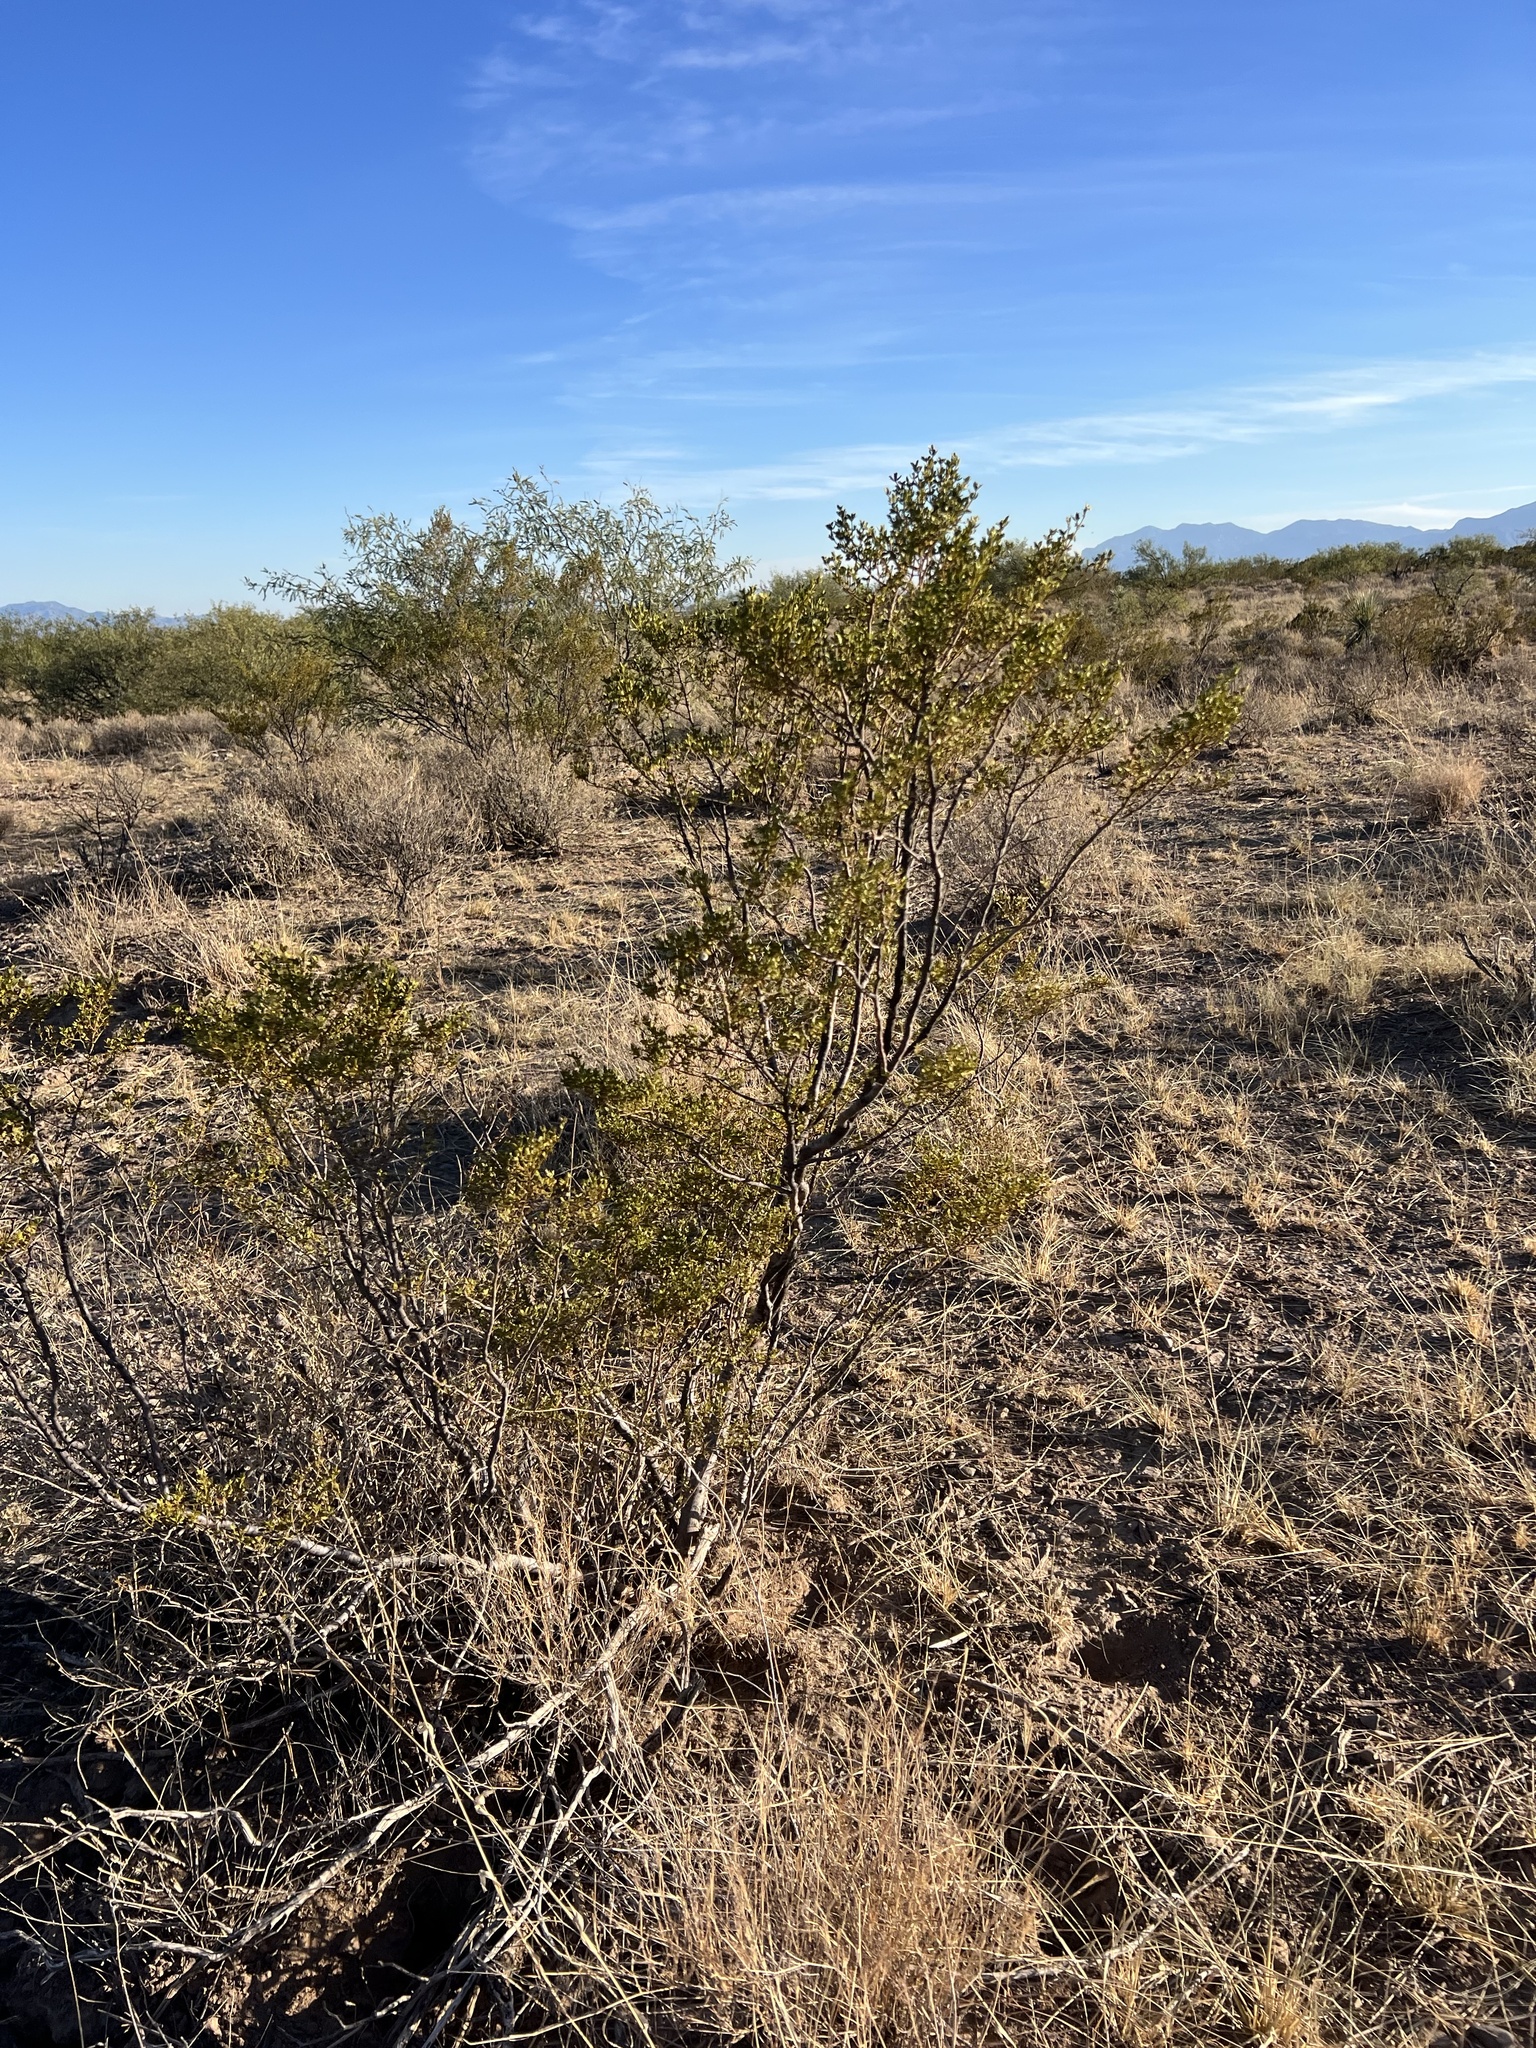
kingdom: Plantae
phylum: Tracheophyta
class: Magnoliopsida
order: Zygophyllales
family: Zygophyllaceae
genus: Larrea
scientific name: Larrea tridentata
